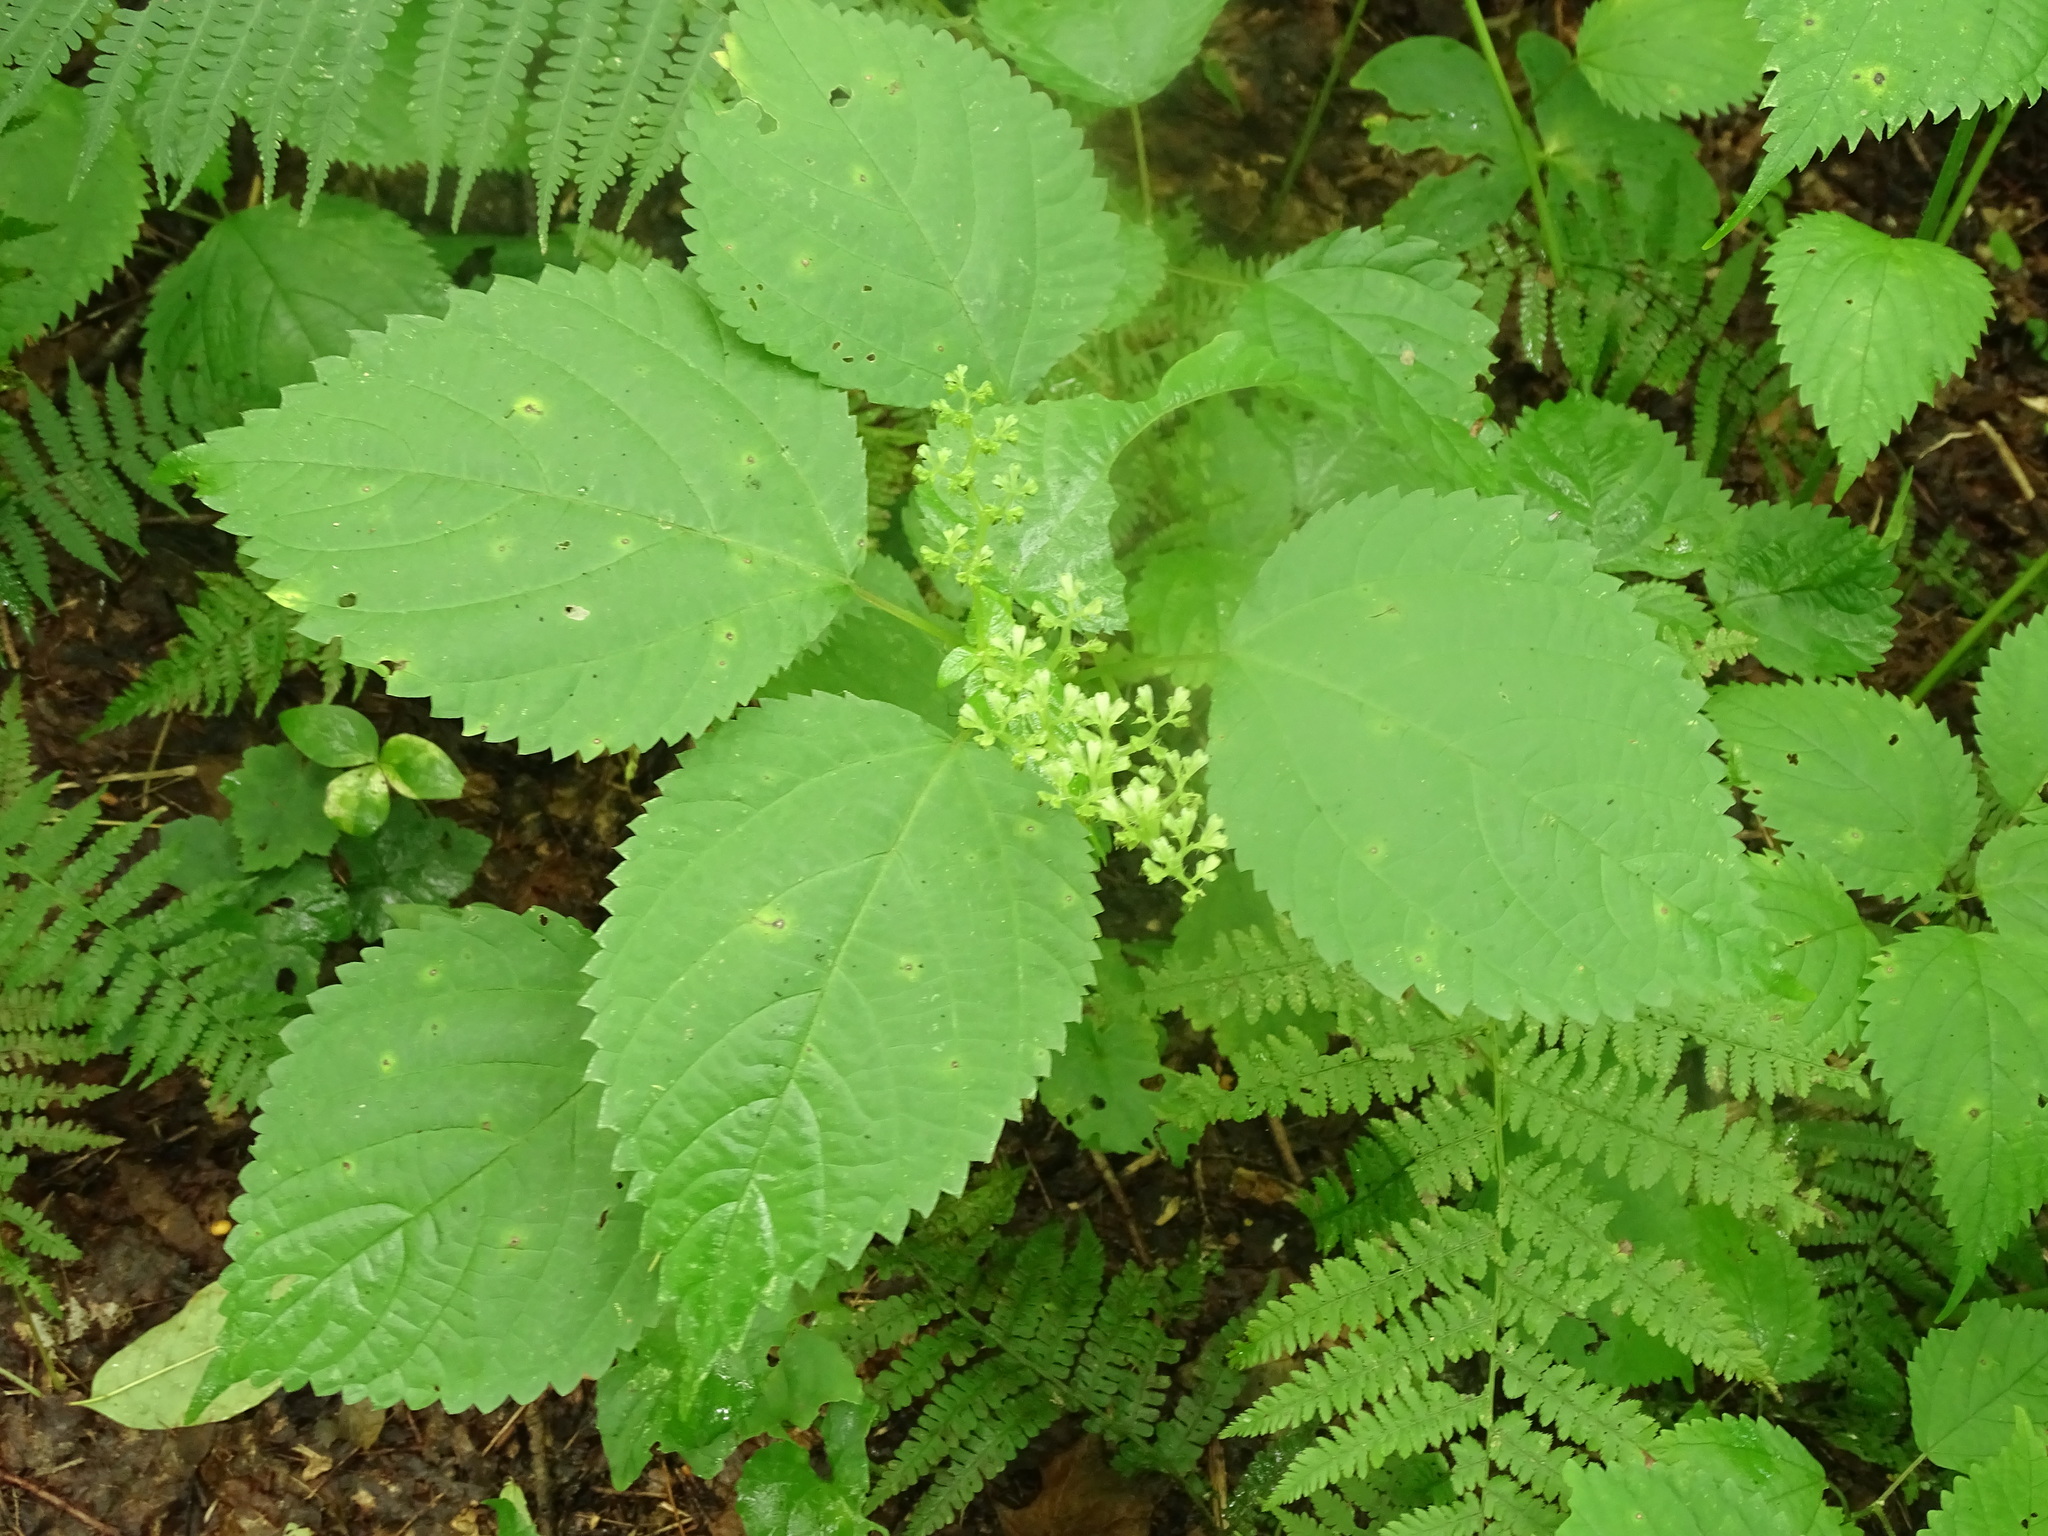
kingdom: Plantae
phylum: Tracheophyta
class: Magnoliopsida
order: Rosales
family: Urticaceae
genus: Laportea
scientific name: Laportea canadensis
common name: Canada nettle
